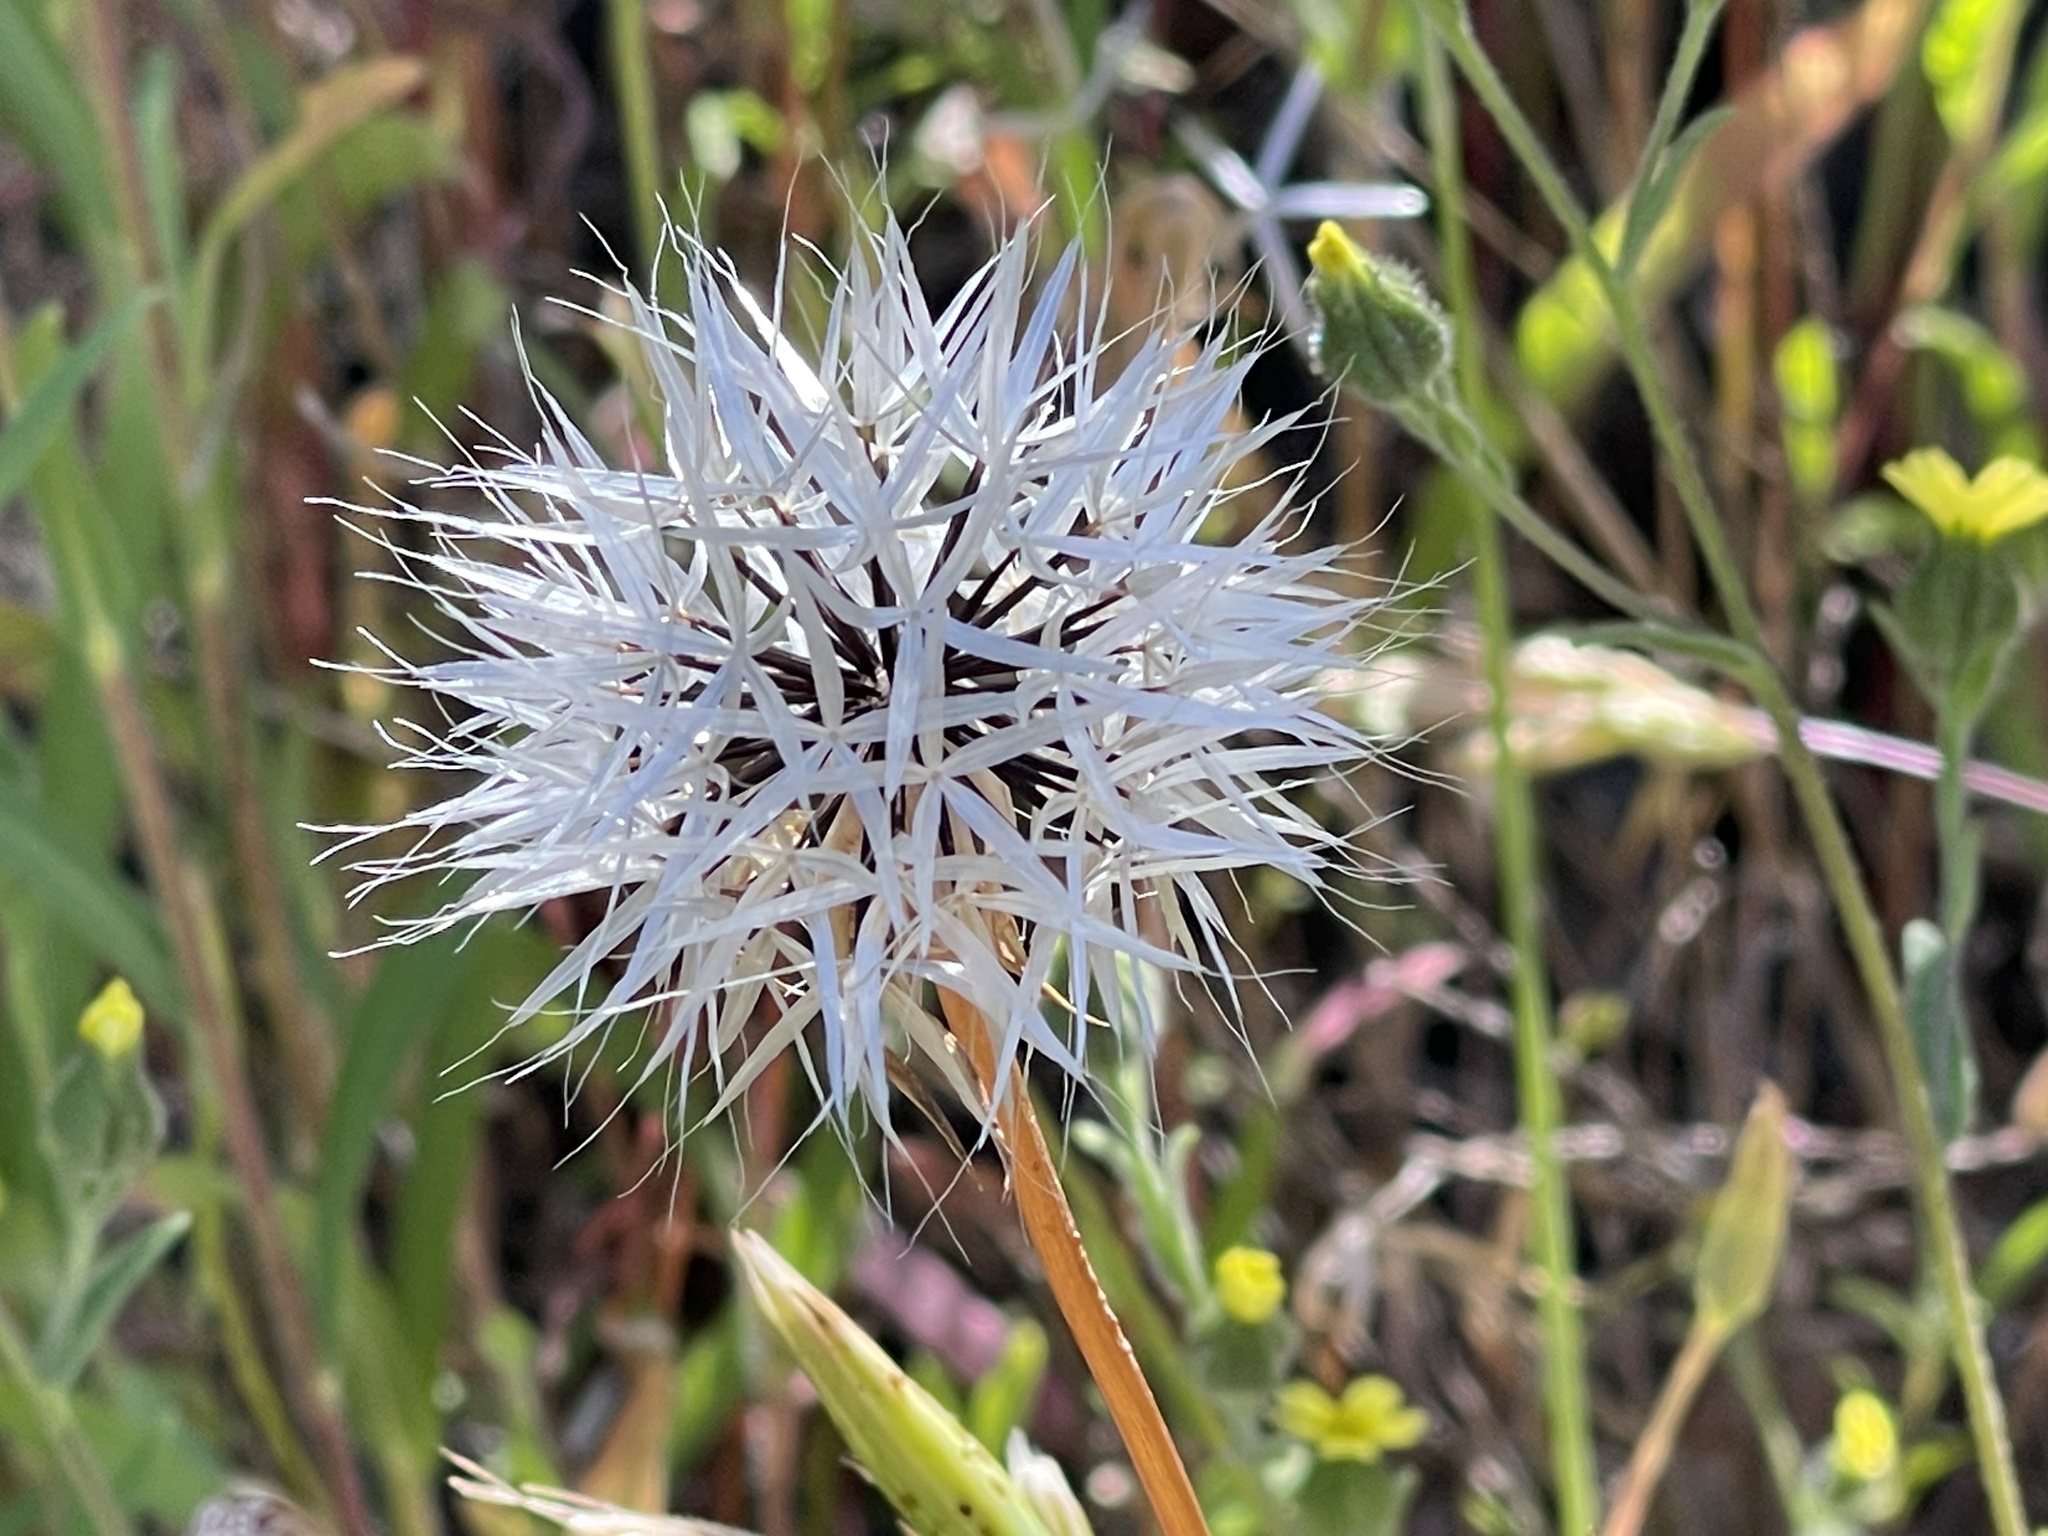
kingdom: Plantae
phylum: Tracheophyta
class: Magnoliopsida
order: Asterales
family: Asteraceae
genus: Microseris
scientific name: Microseris lindleyi
